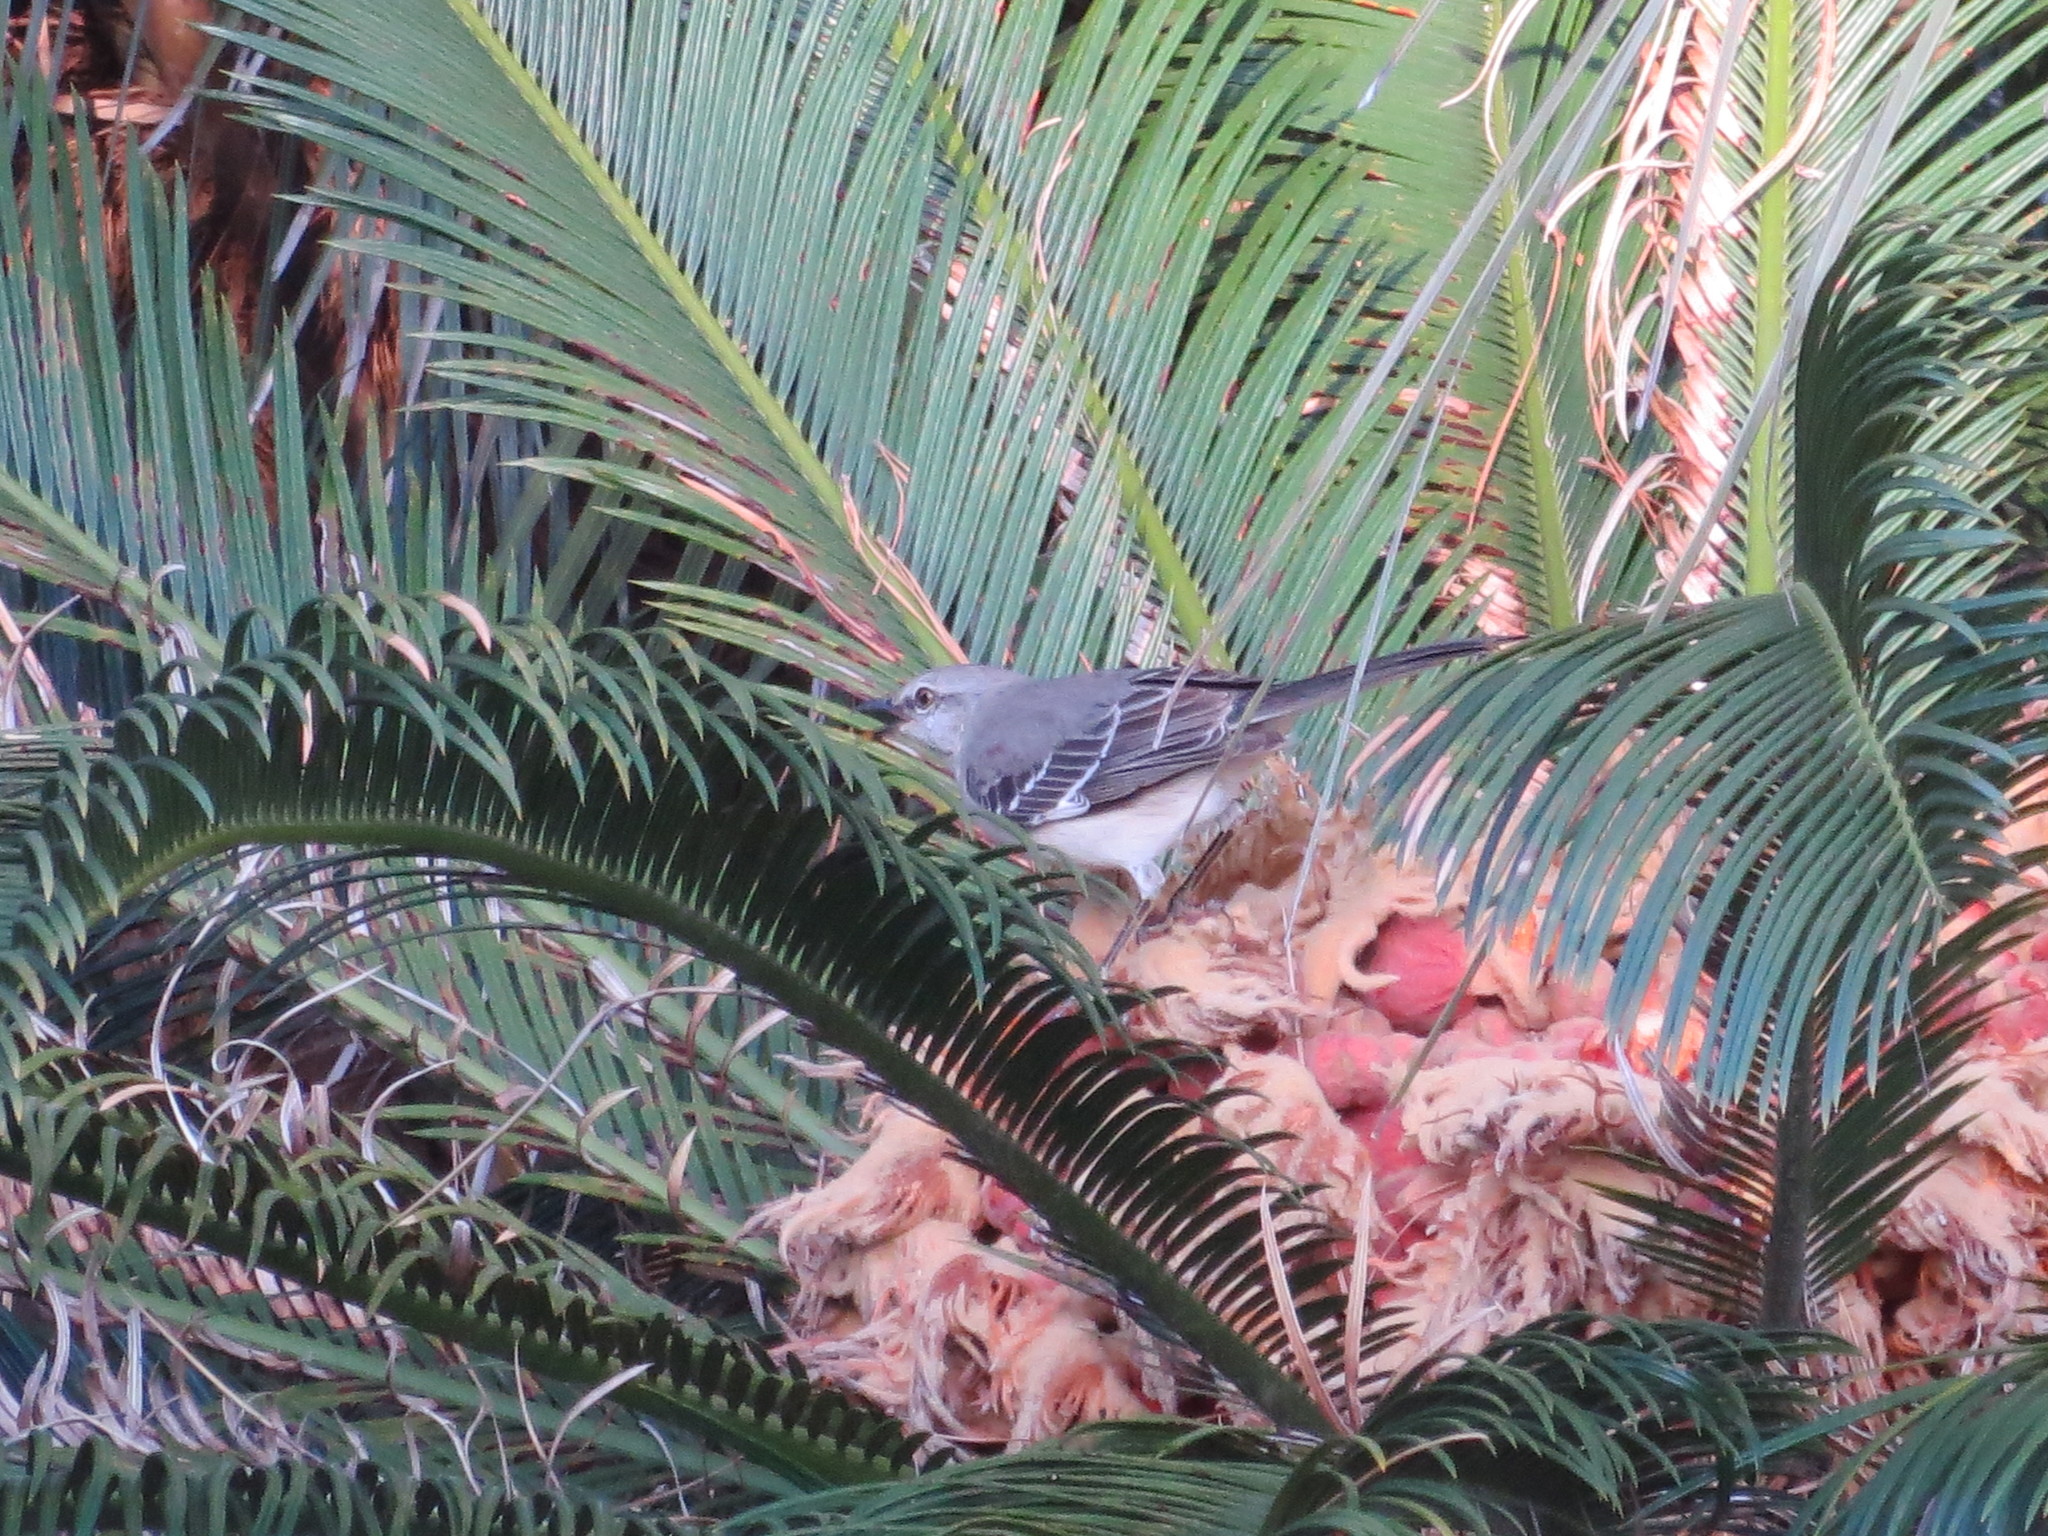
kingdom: Animalia
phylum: Chordata
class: Aves
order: Passeriformes
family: Mimidae
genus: Mimus
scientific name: Mimus polyglottos
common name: Northern mockingbird
